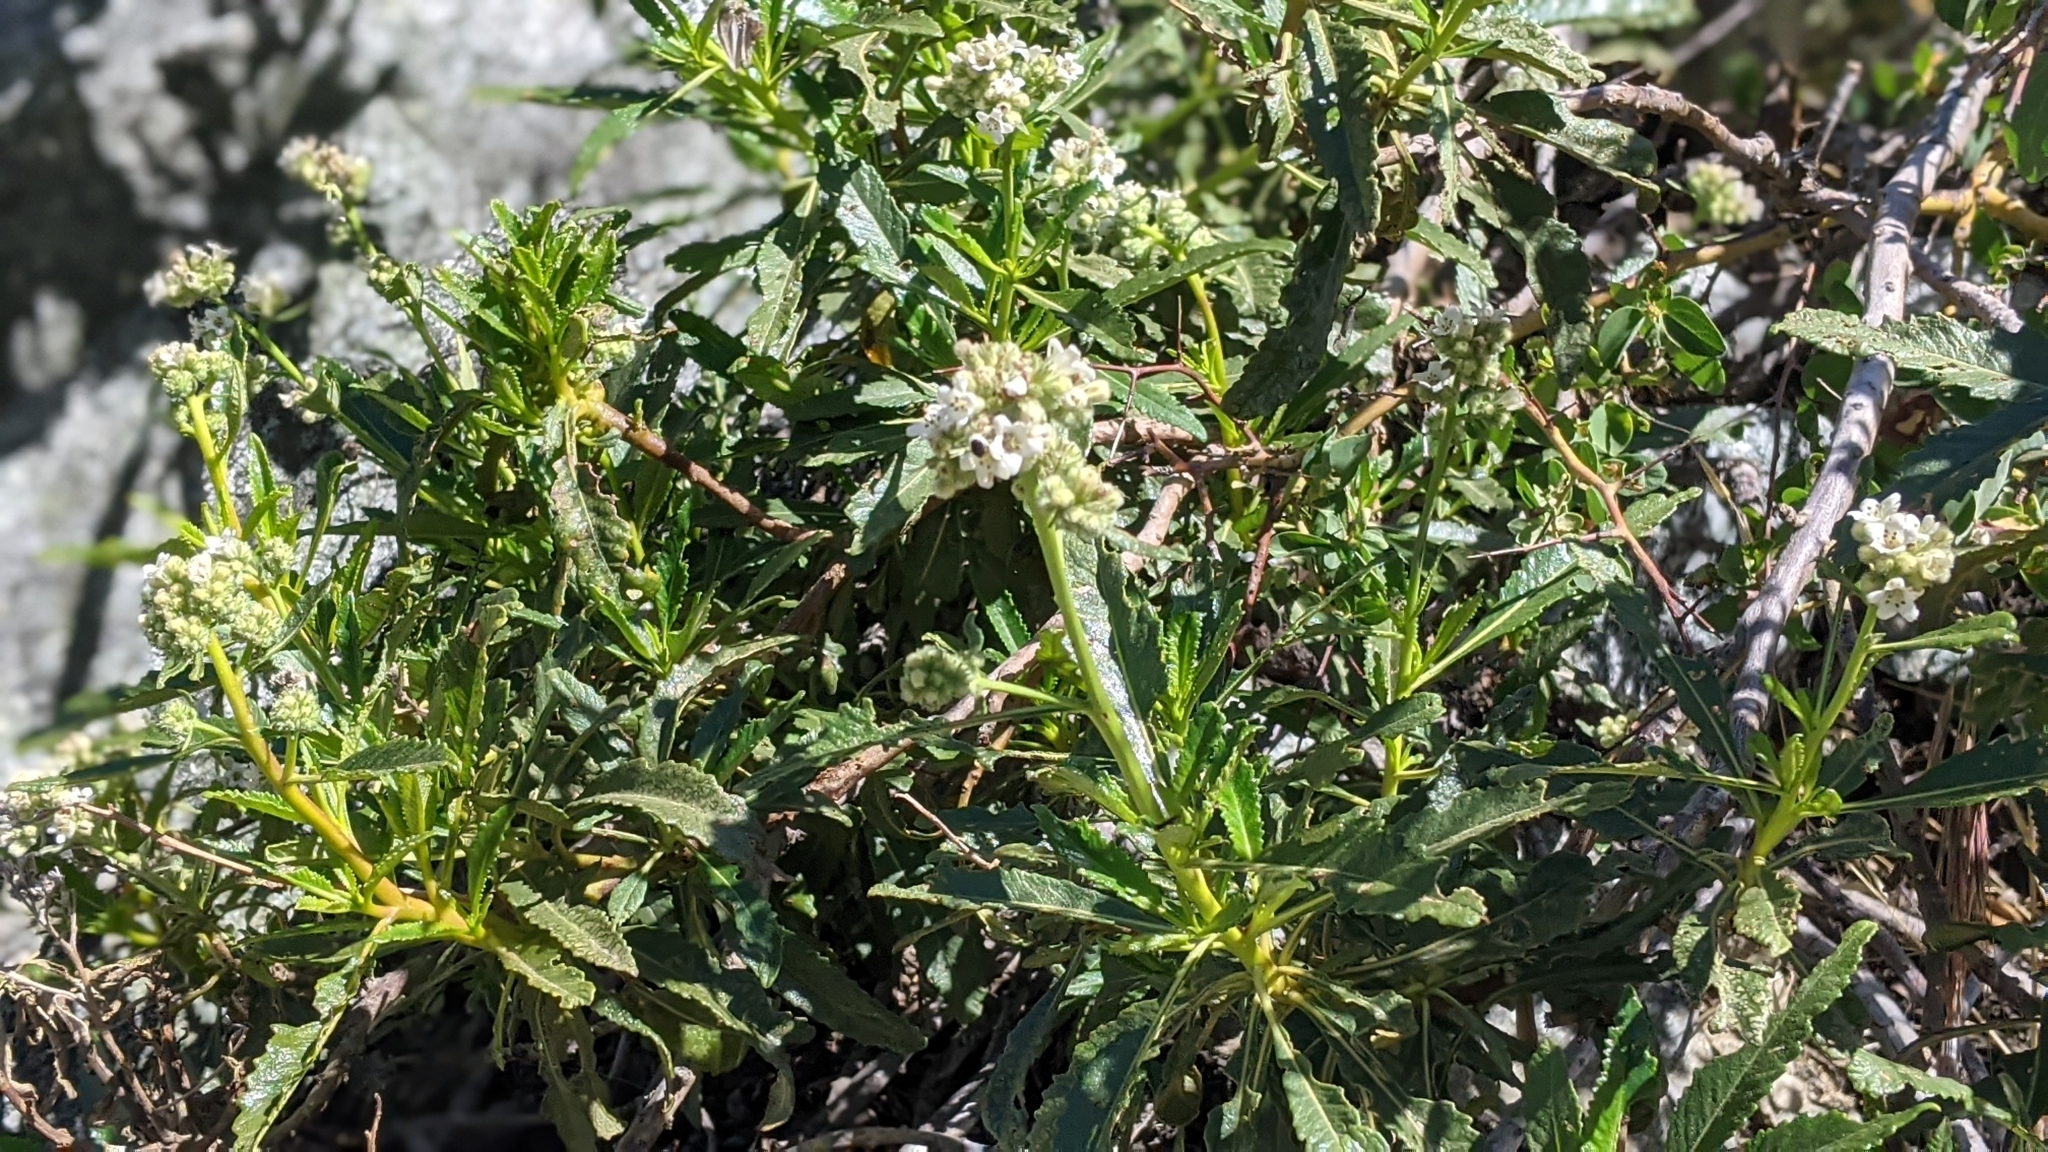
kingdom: Plantae
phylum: Tracheophyta
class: Magnoliopsida
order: Boraginales
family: Namaceae
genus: Eriodictyon
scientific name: Eriodictyon trichocalyx
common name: Hairy yerba-santa
